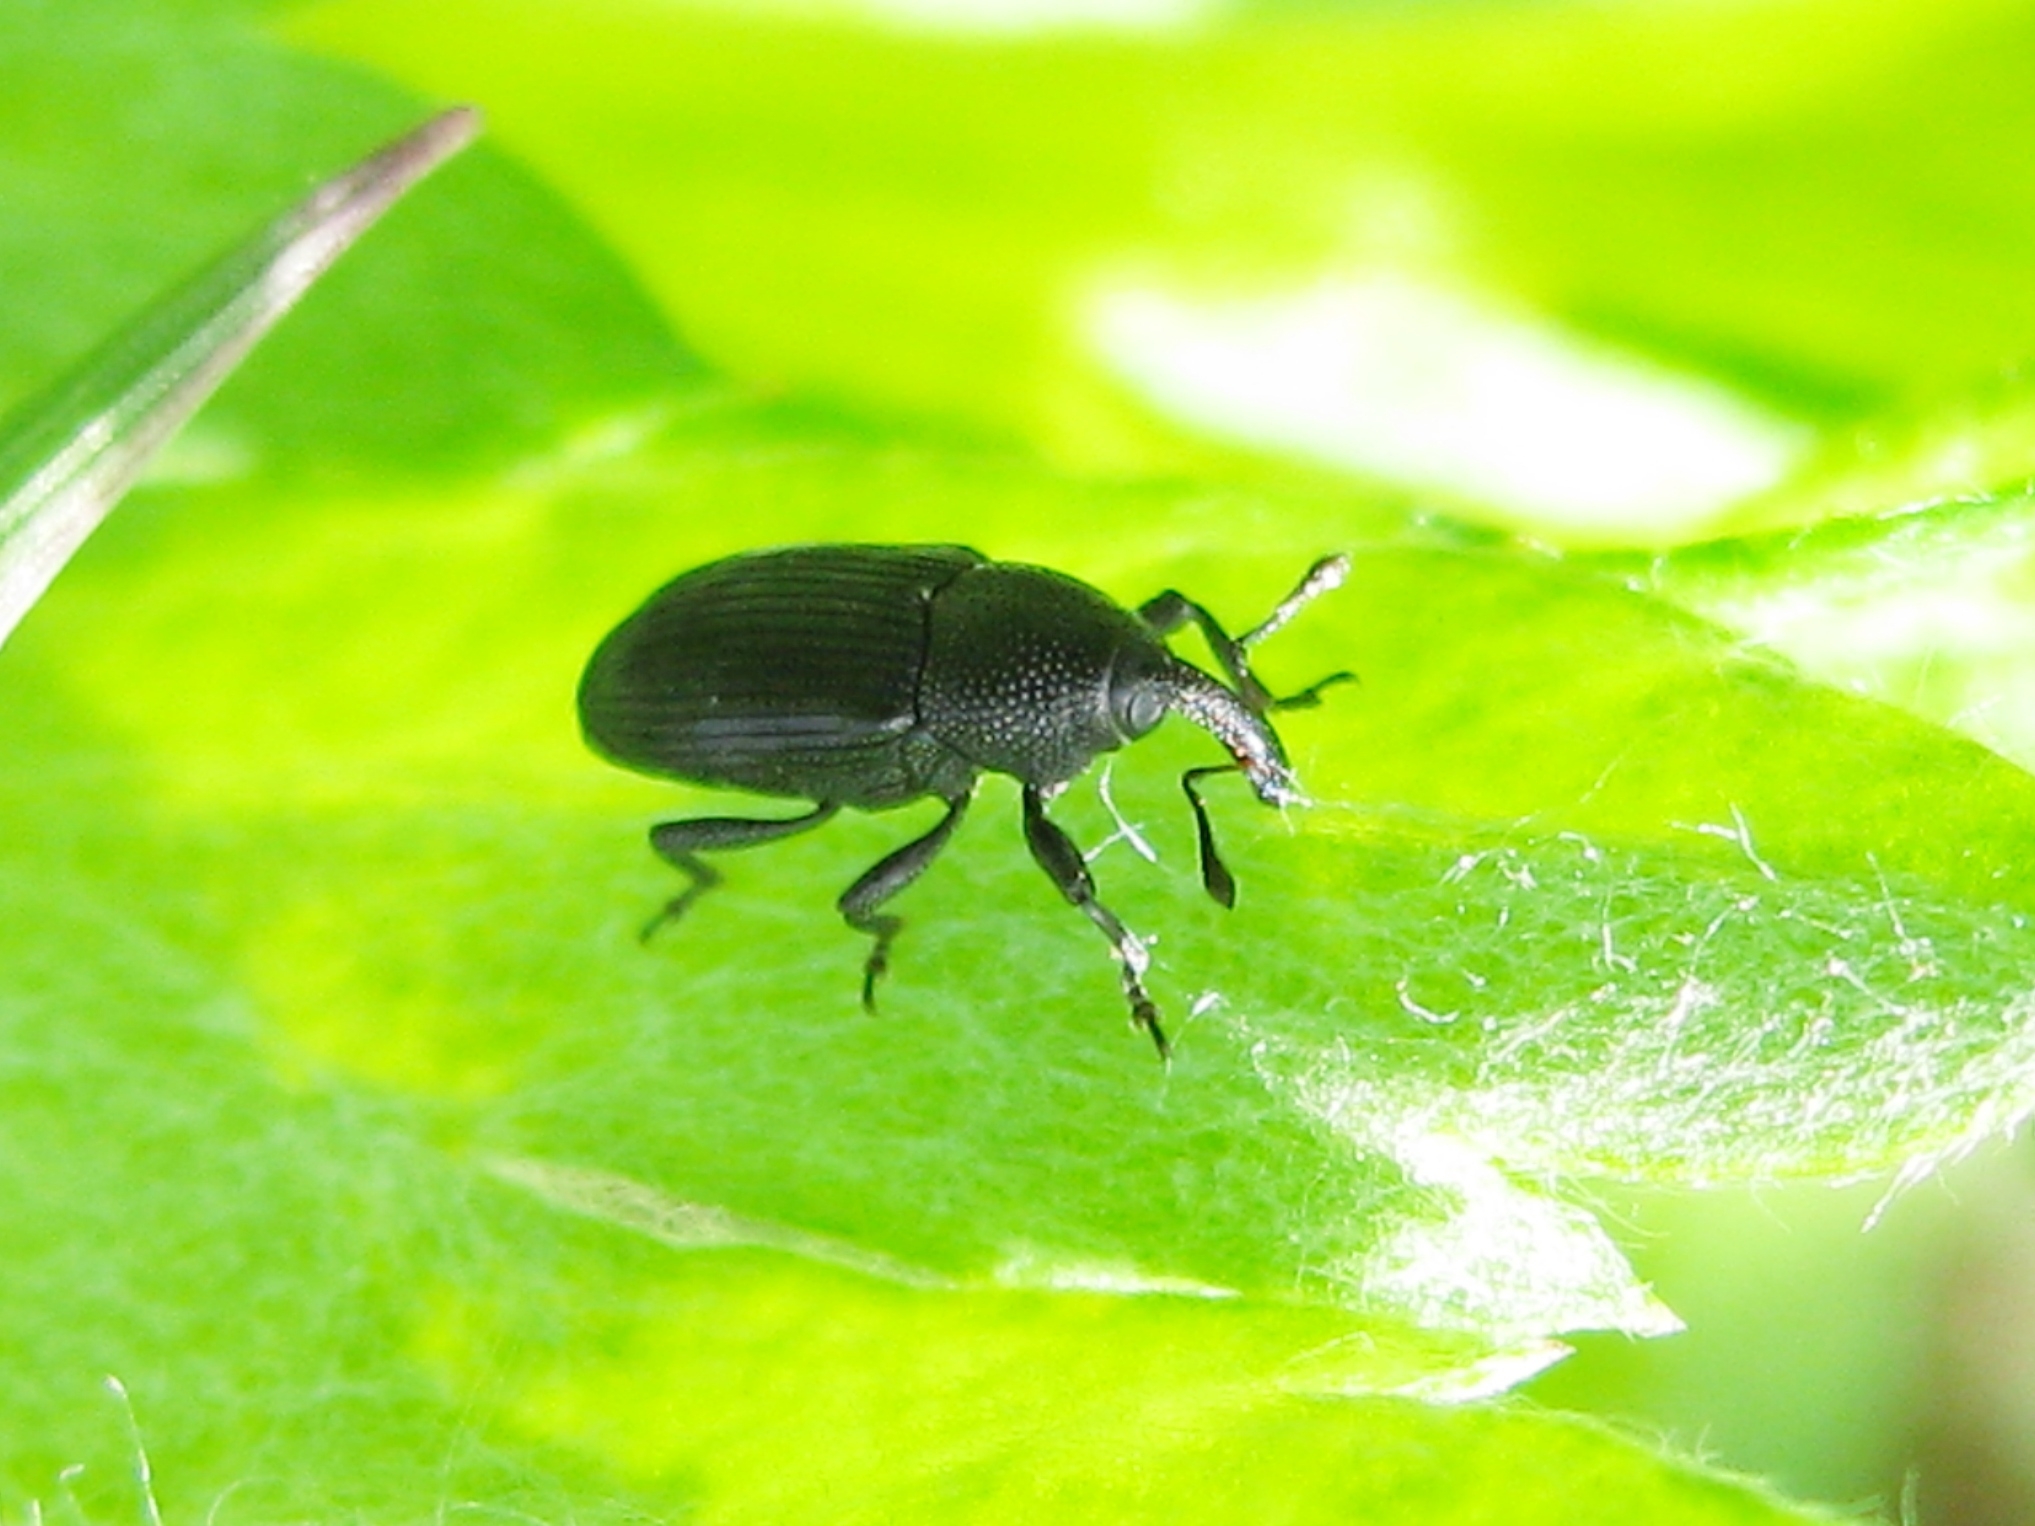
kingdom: Animalia
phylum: Arthropoda
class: Insecta
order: Coleoptera
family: Curculionidae
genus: Baris
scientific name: Baris artemisiae
